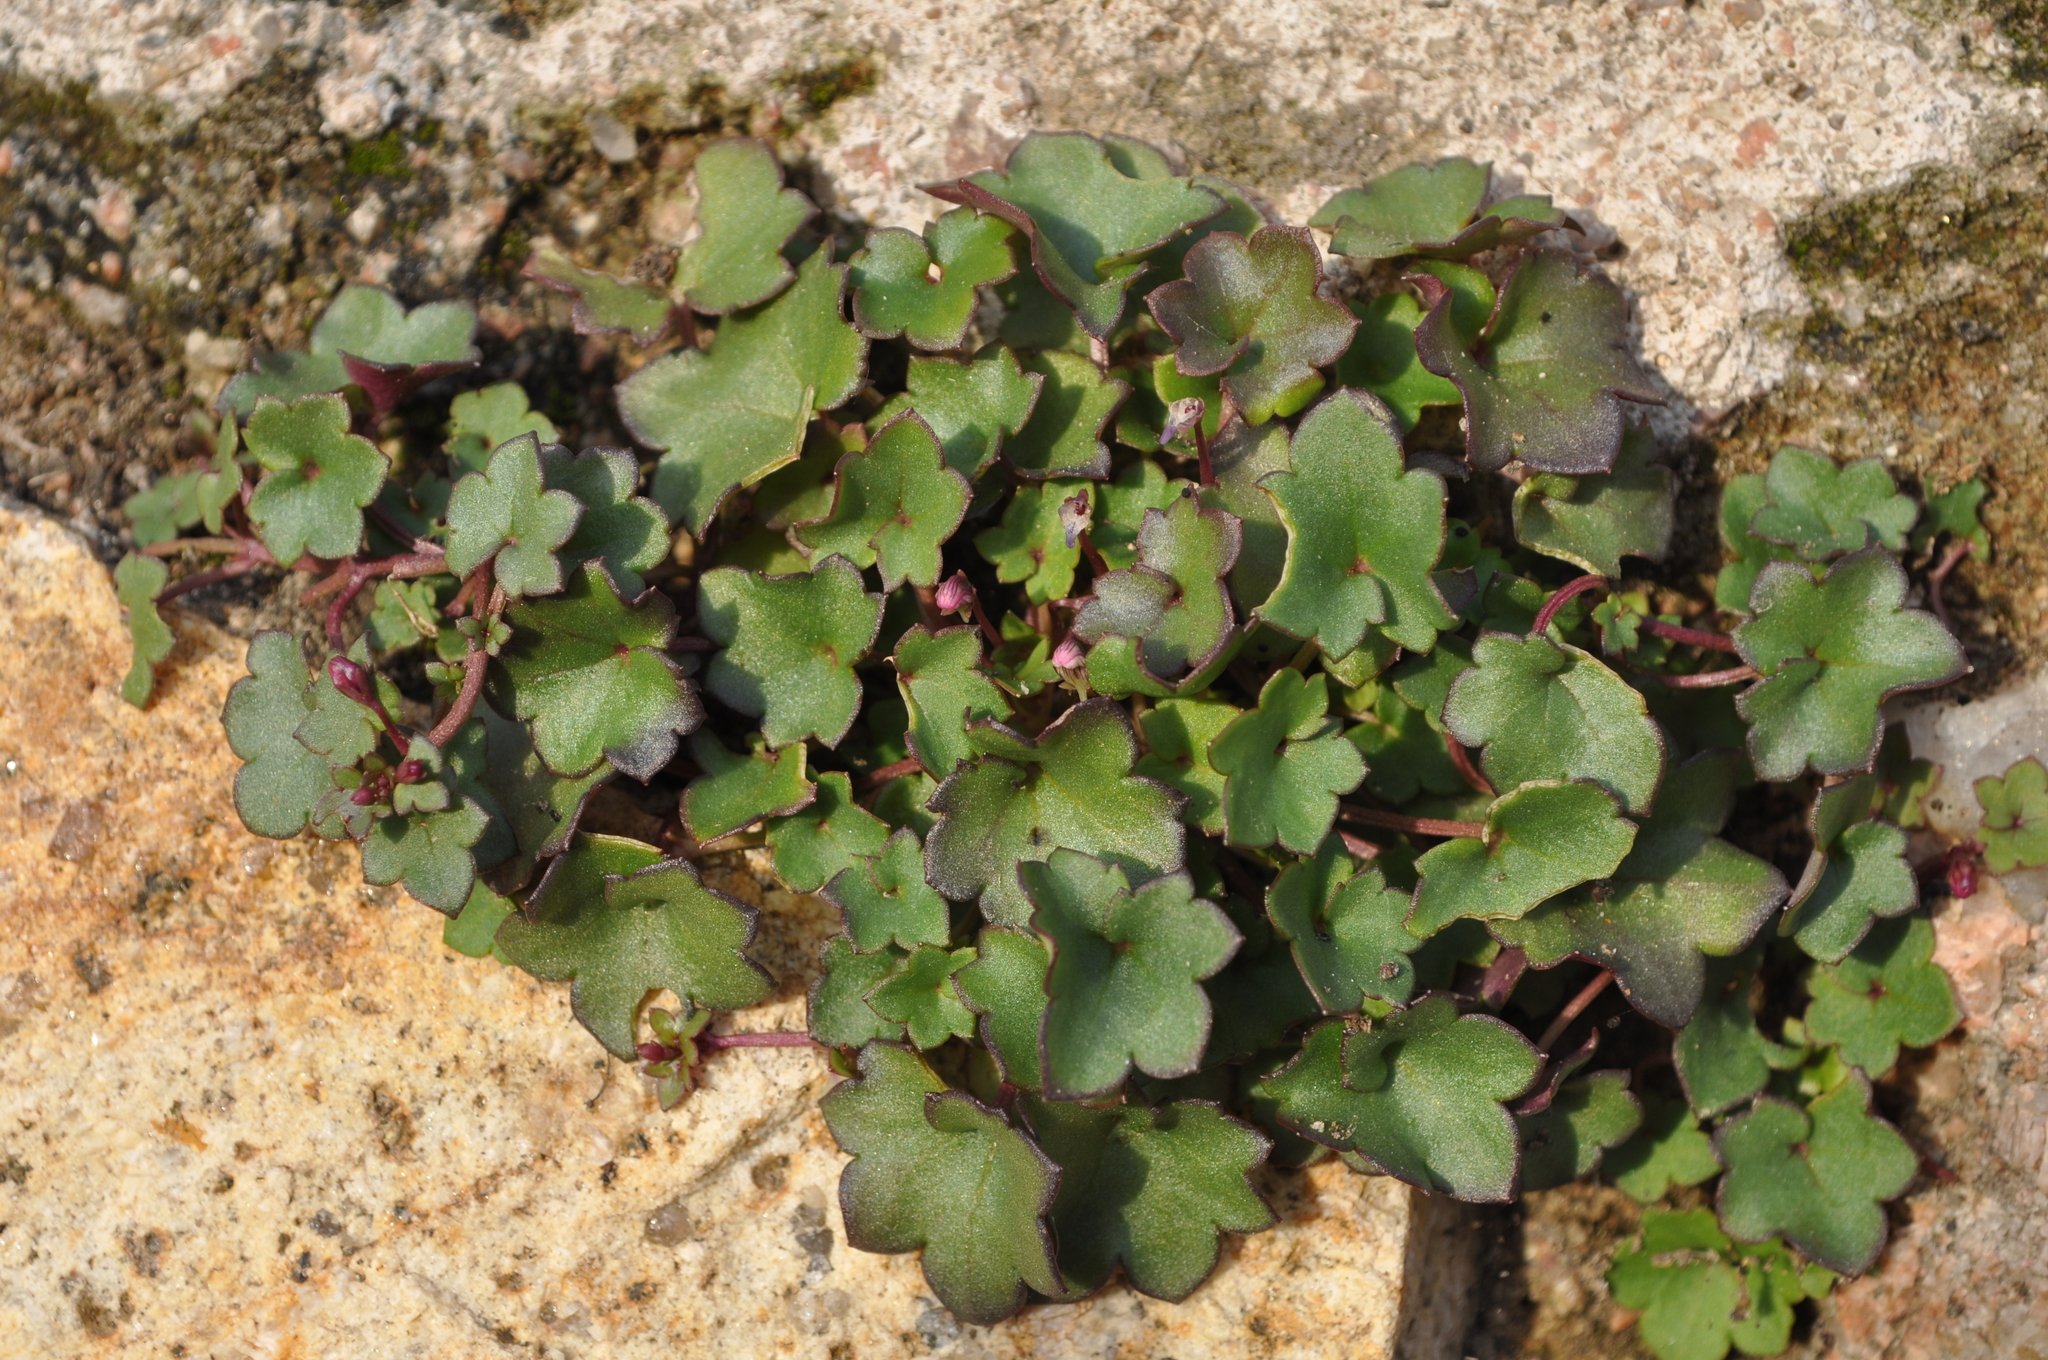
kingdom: Plantae
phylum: Tracheophyta
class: Magnoliopsida
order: Lamiales
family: Plantaginaceae
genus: Cymbalaria
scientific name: Cymbalaria muralis
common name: Ivy-leaved toadflax
